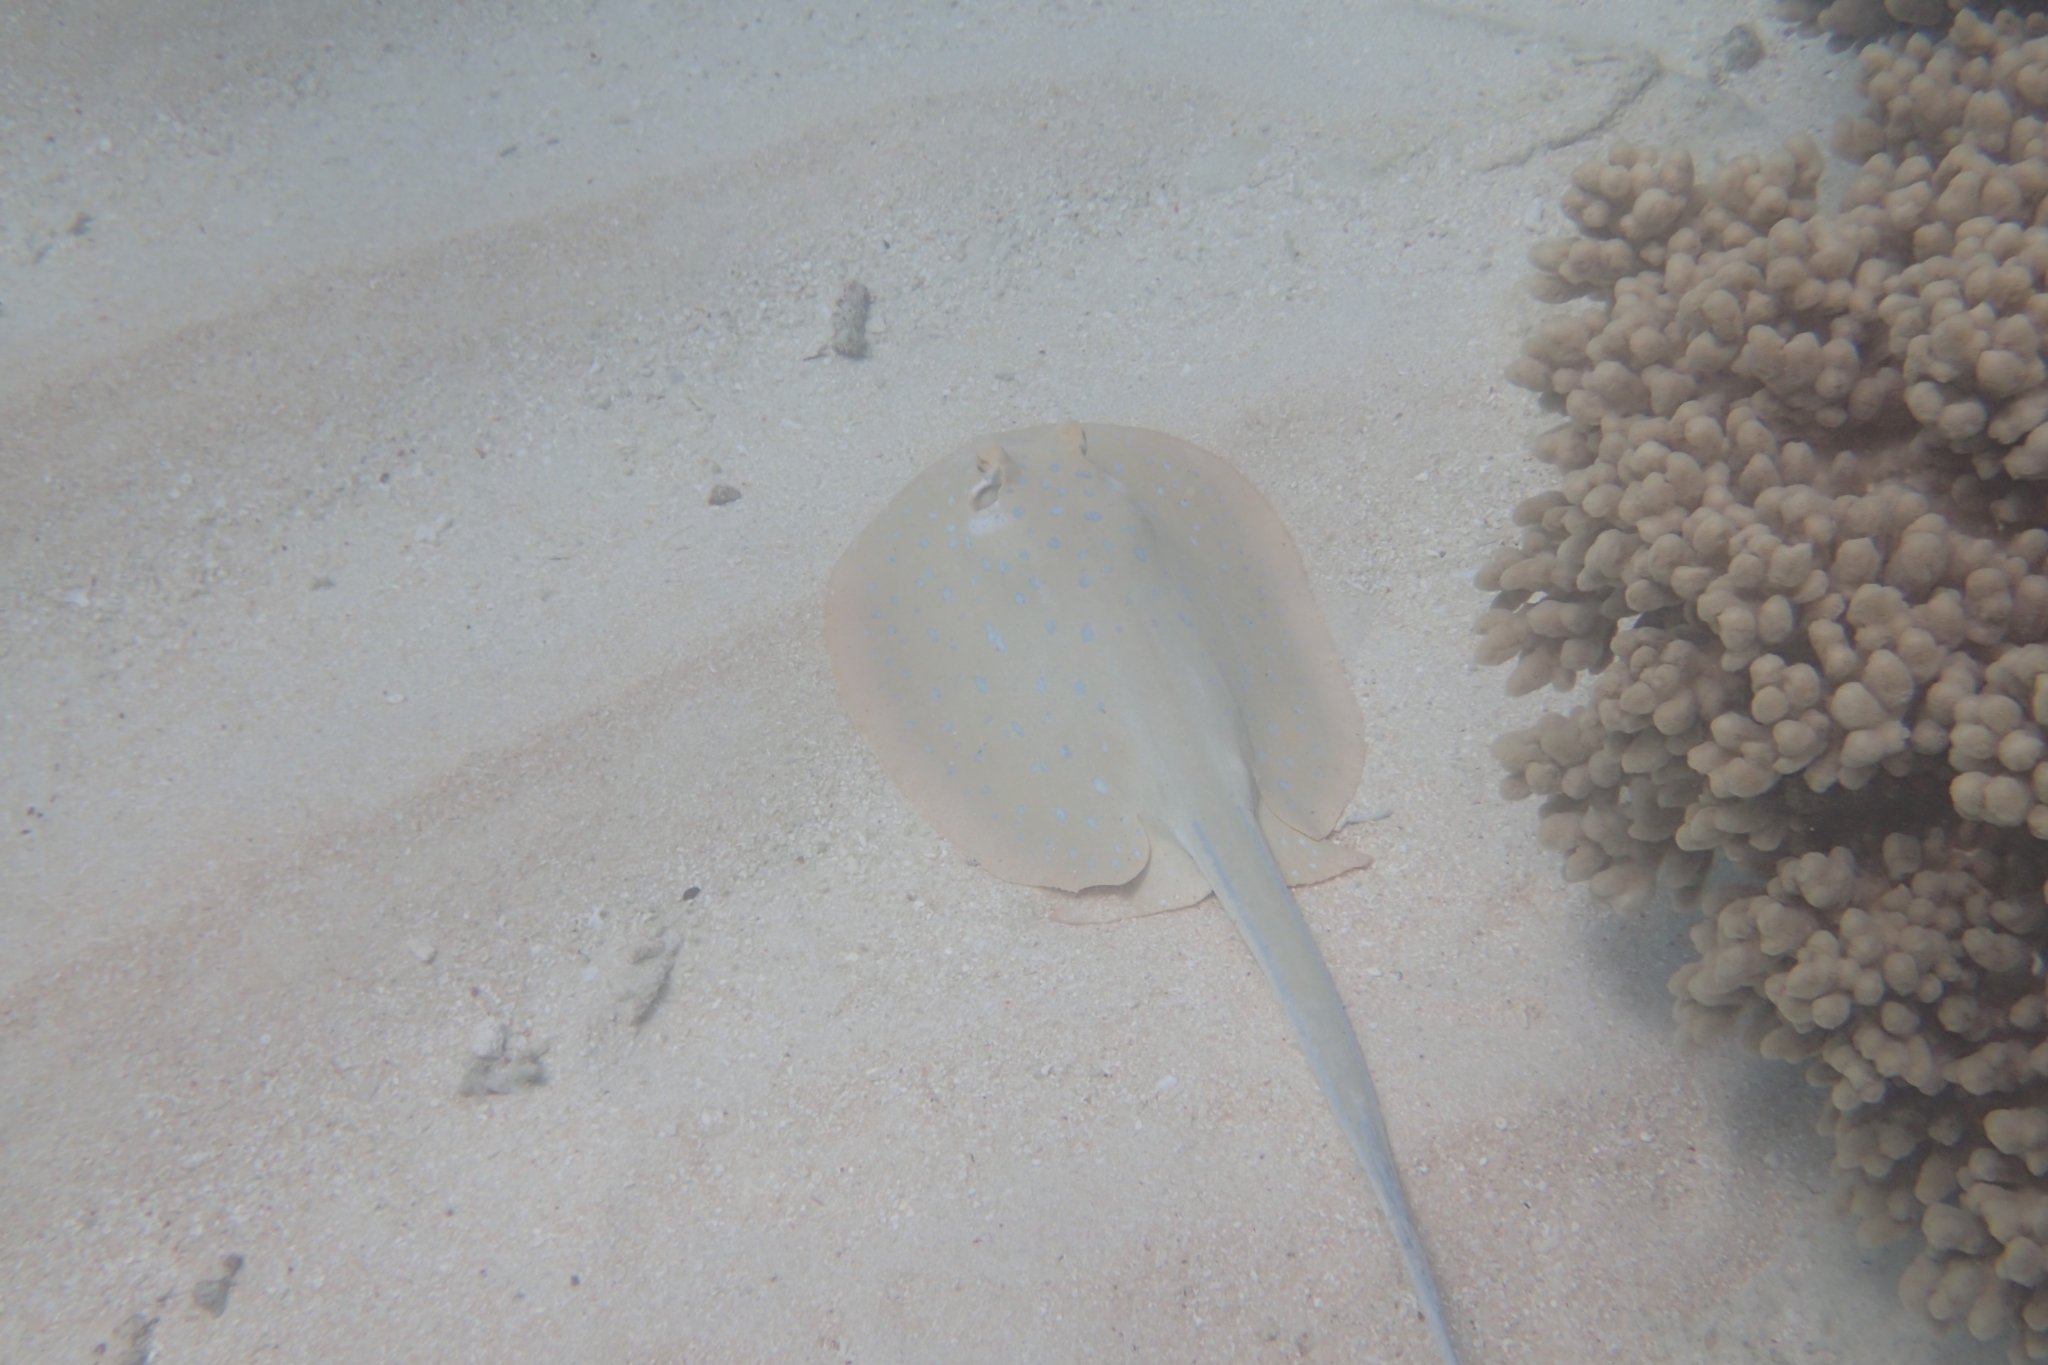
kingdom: Animalia
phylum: Chordata
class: Elasmobranchii
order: Myliobatiformes
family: Dasyatidae
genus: Taeniura
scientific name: Taeniura lymma
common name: Bluespotted ribbontail ray
